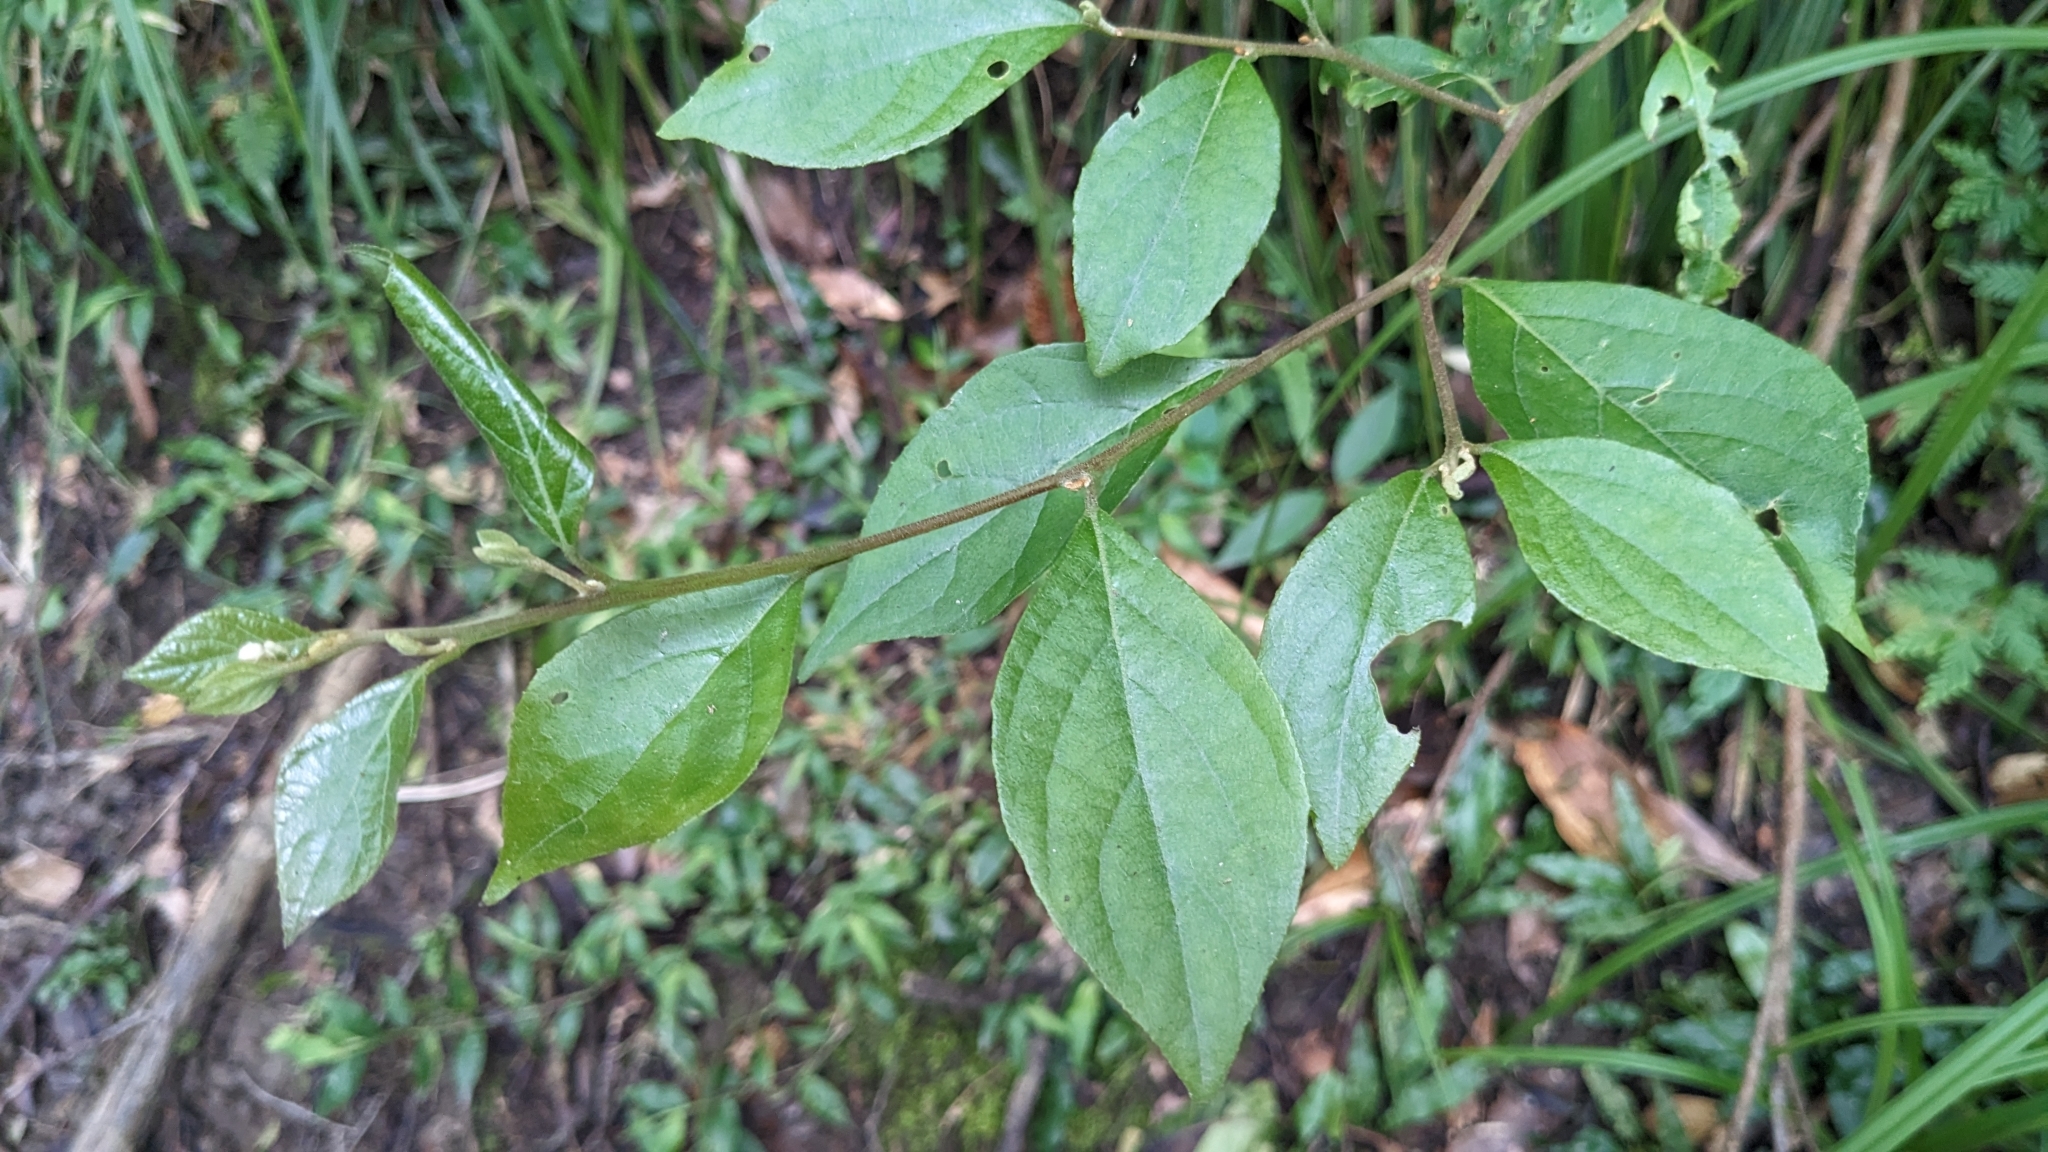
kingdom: Plantae
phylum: Tracheophyta
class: Magnoliopsida
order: Ericales
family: Styracaceae
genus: Styrax
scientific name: Styrax formosanus
